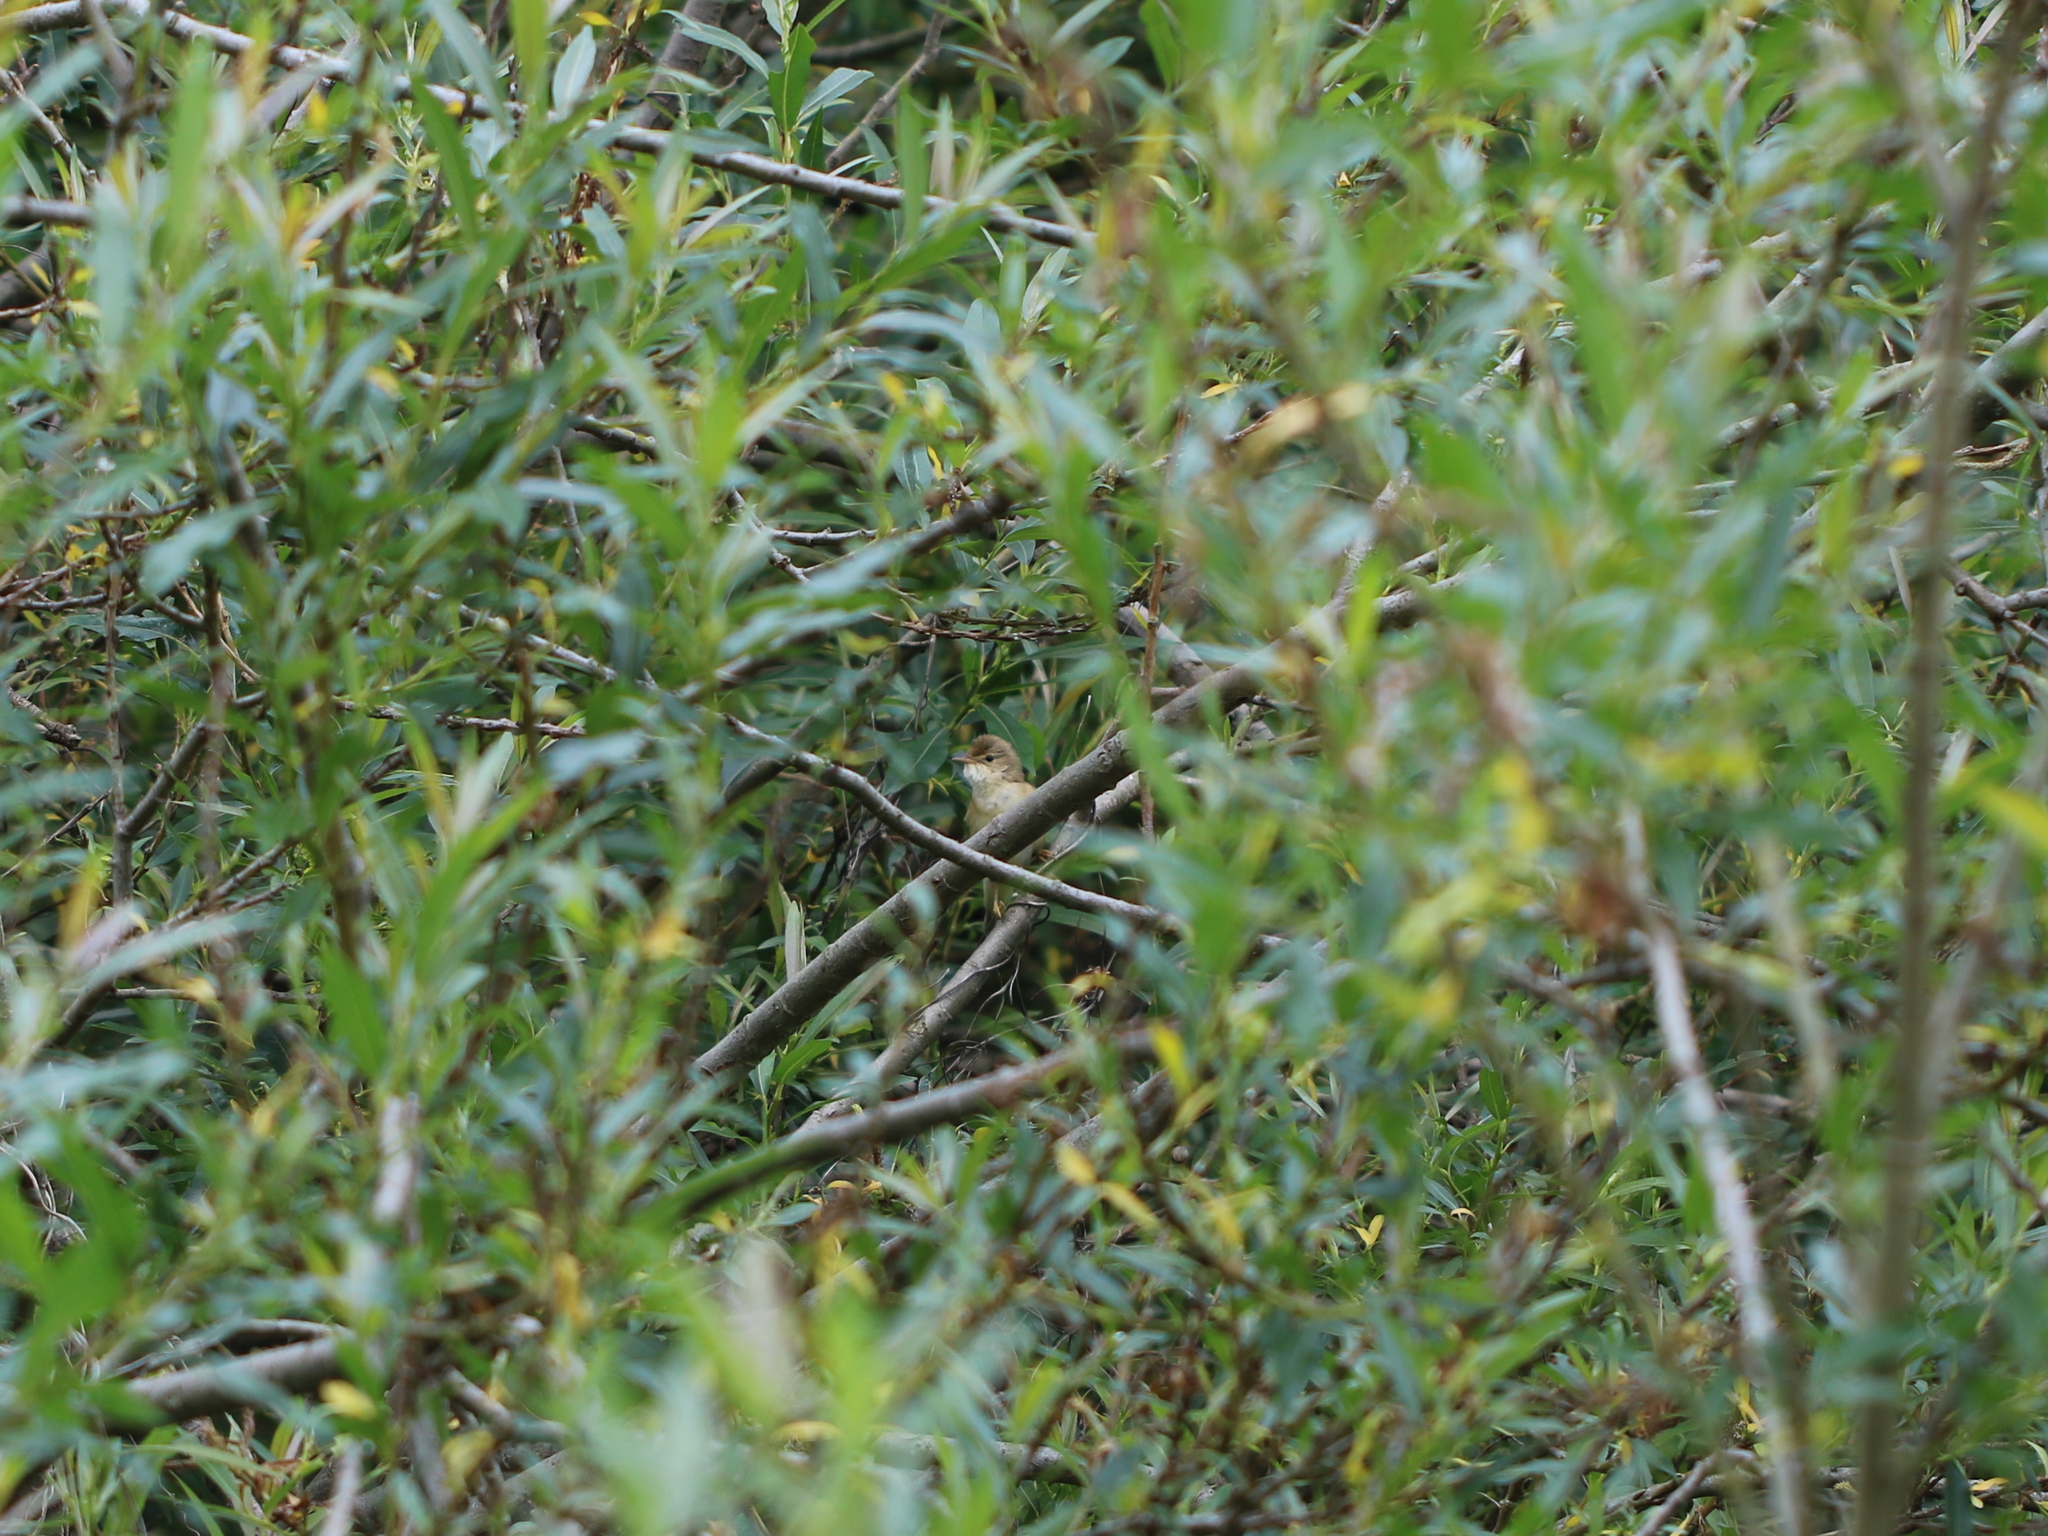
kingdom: Animalia
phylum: Chordata
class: Aves
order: Passeriformes
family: Acrocephalidae
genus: Acrocephalus
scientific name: Acrocephalus palustris
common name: Marsh warbler
